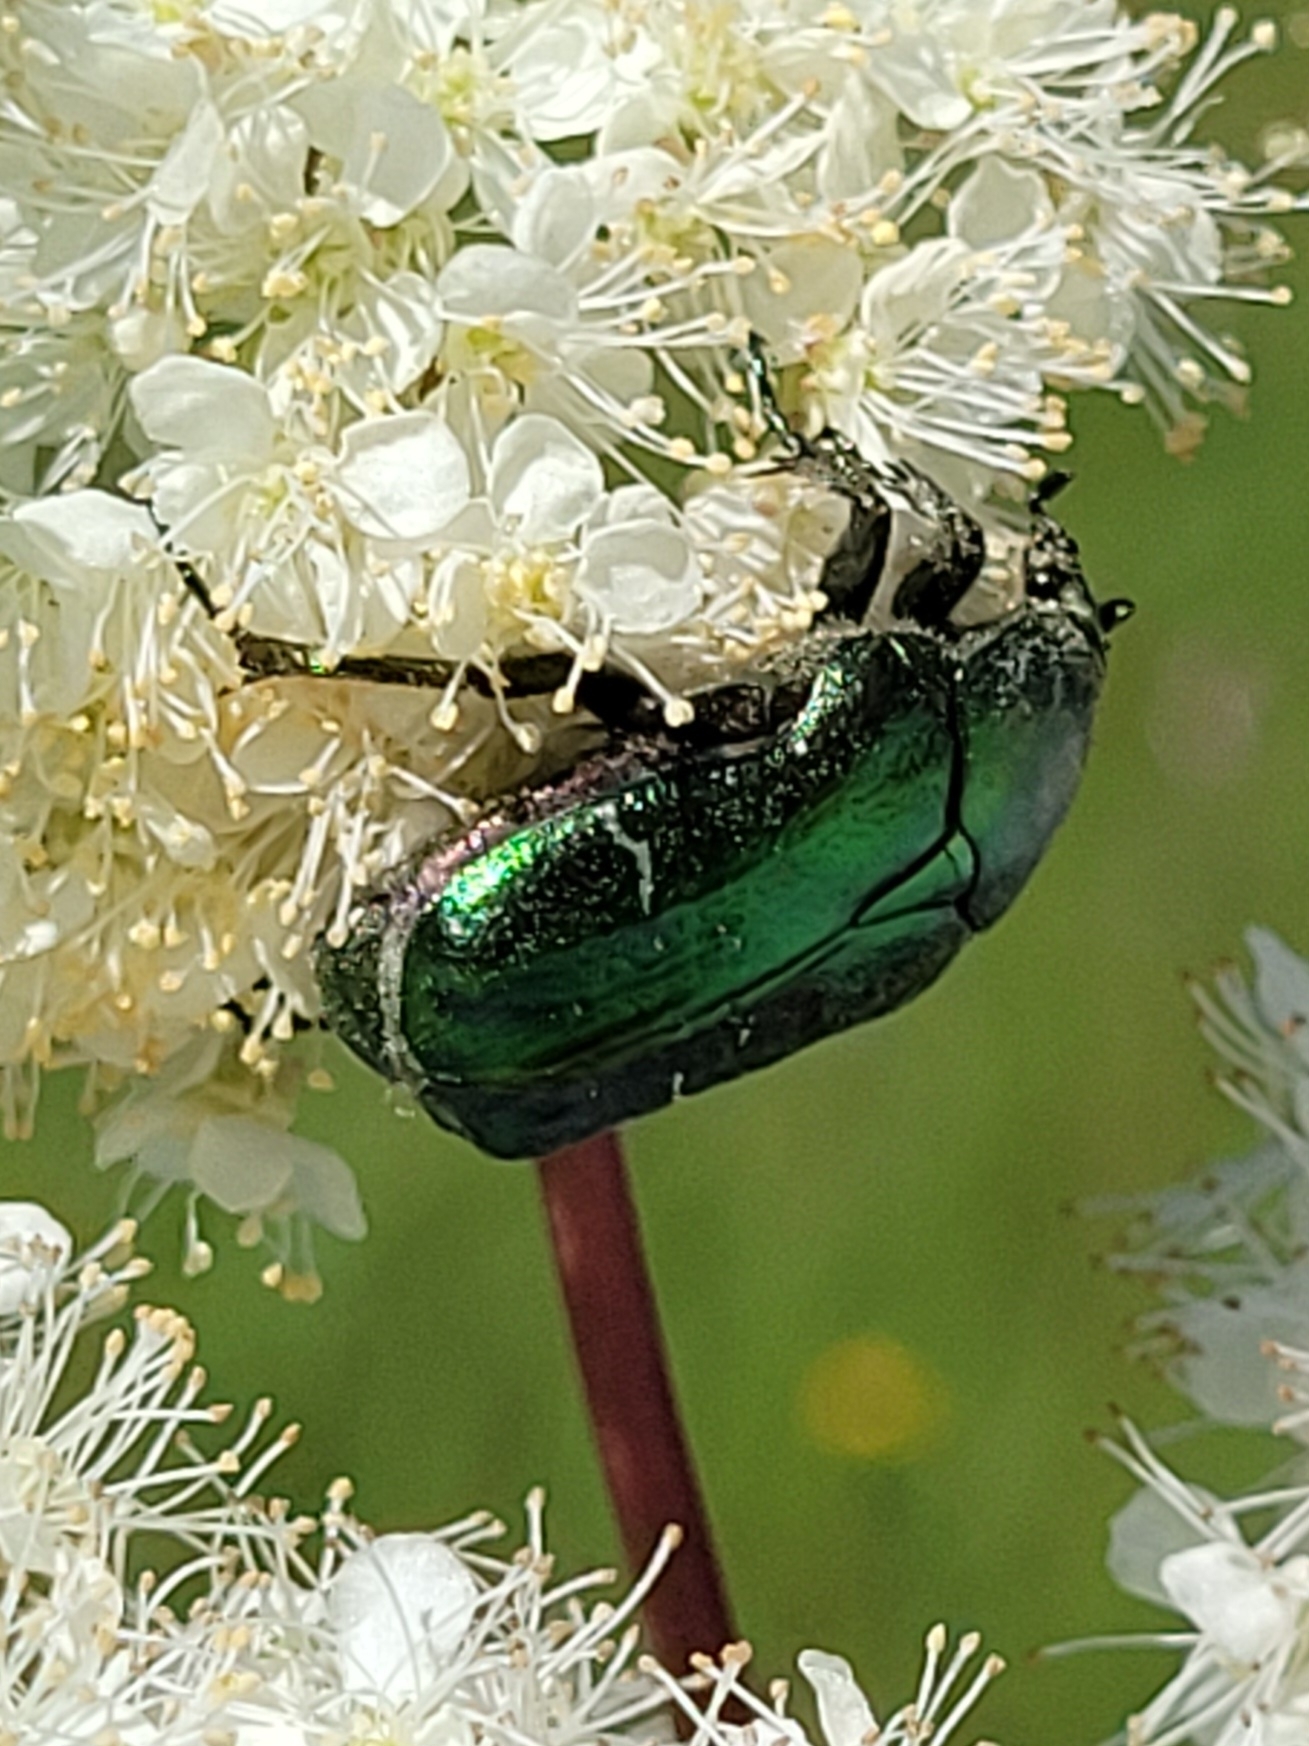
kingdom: Animalia
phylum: Arthropoda
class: Insecta
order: Coleoptera
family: Scarabaeidae
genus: Cetonia
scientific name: Cetonia aurata
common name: Rose chafer
